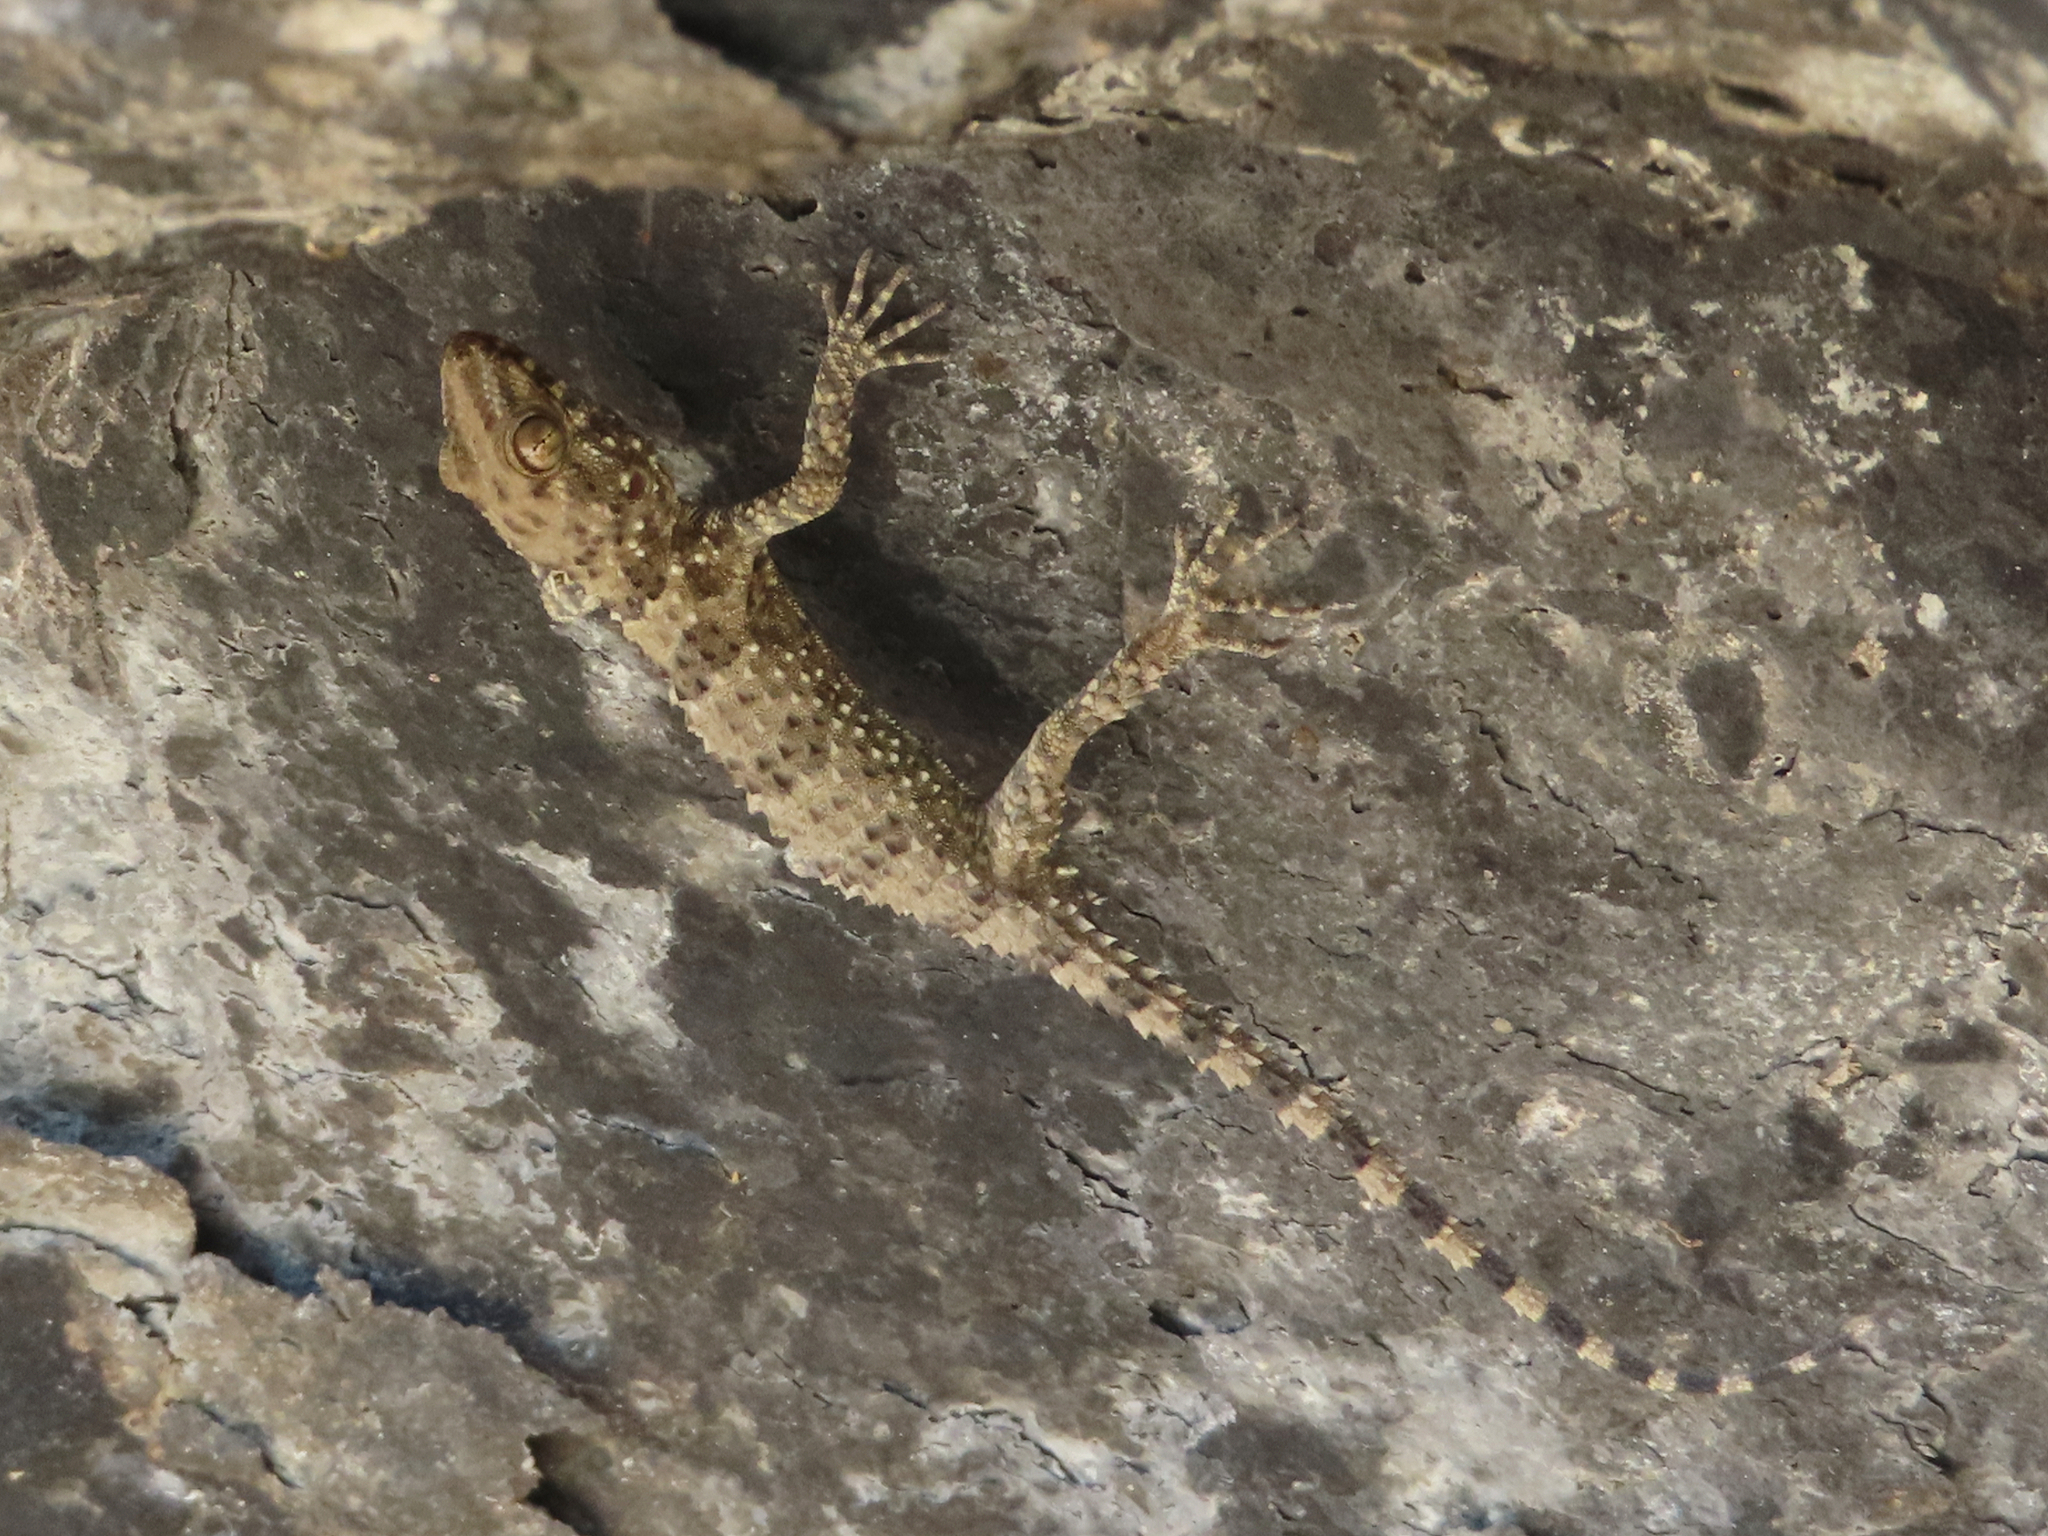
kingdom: Animalia
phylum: Chordata
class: Squamata
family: Gekkonidae
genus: Tenuidactylus
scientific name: Tenuidactylus caspius
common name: Caspian bent-toed gecko
